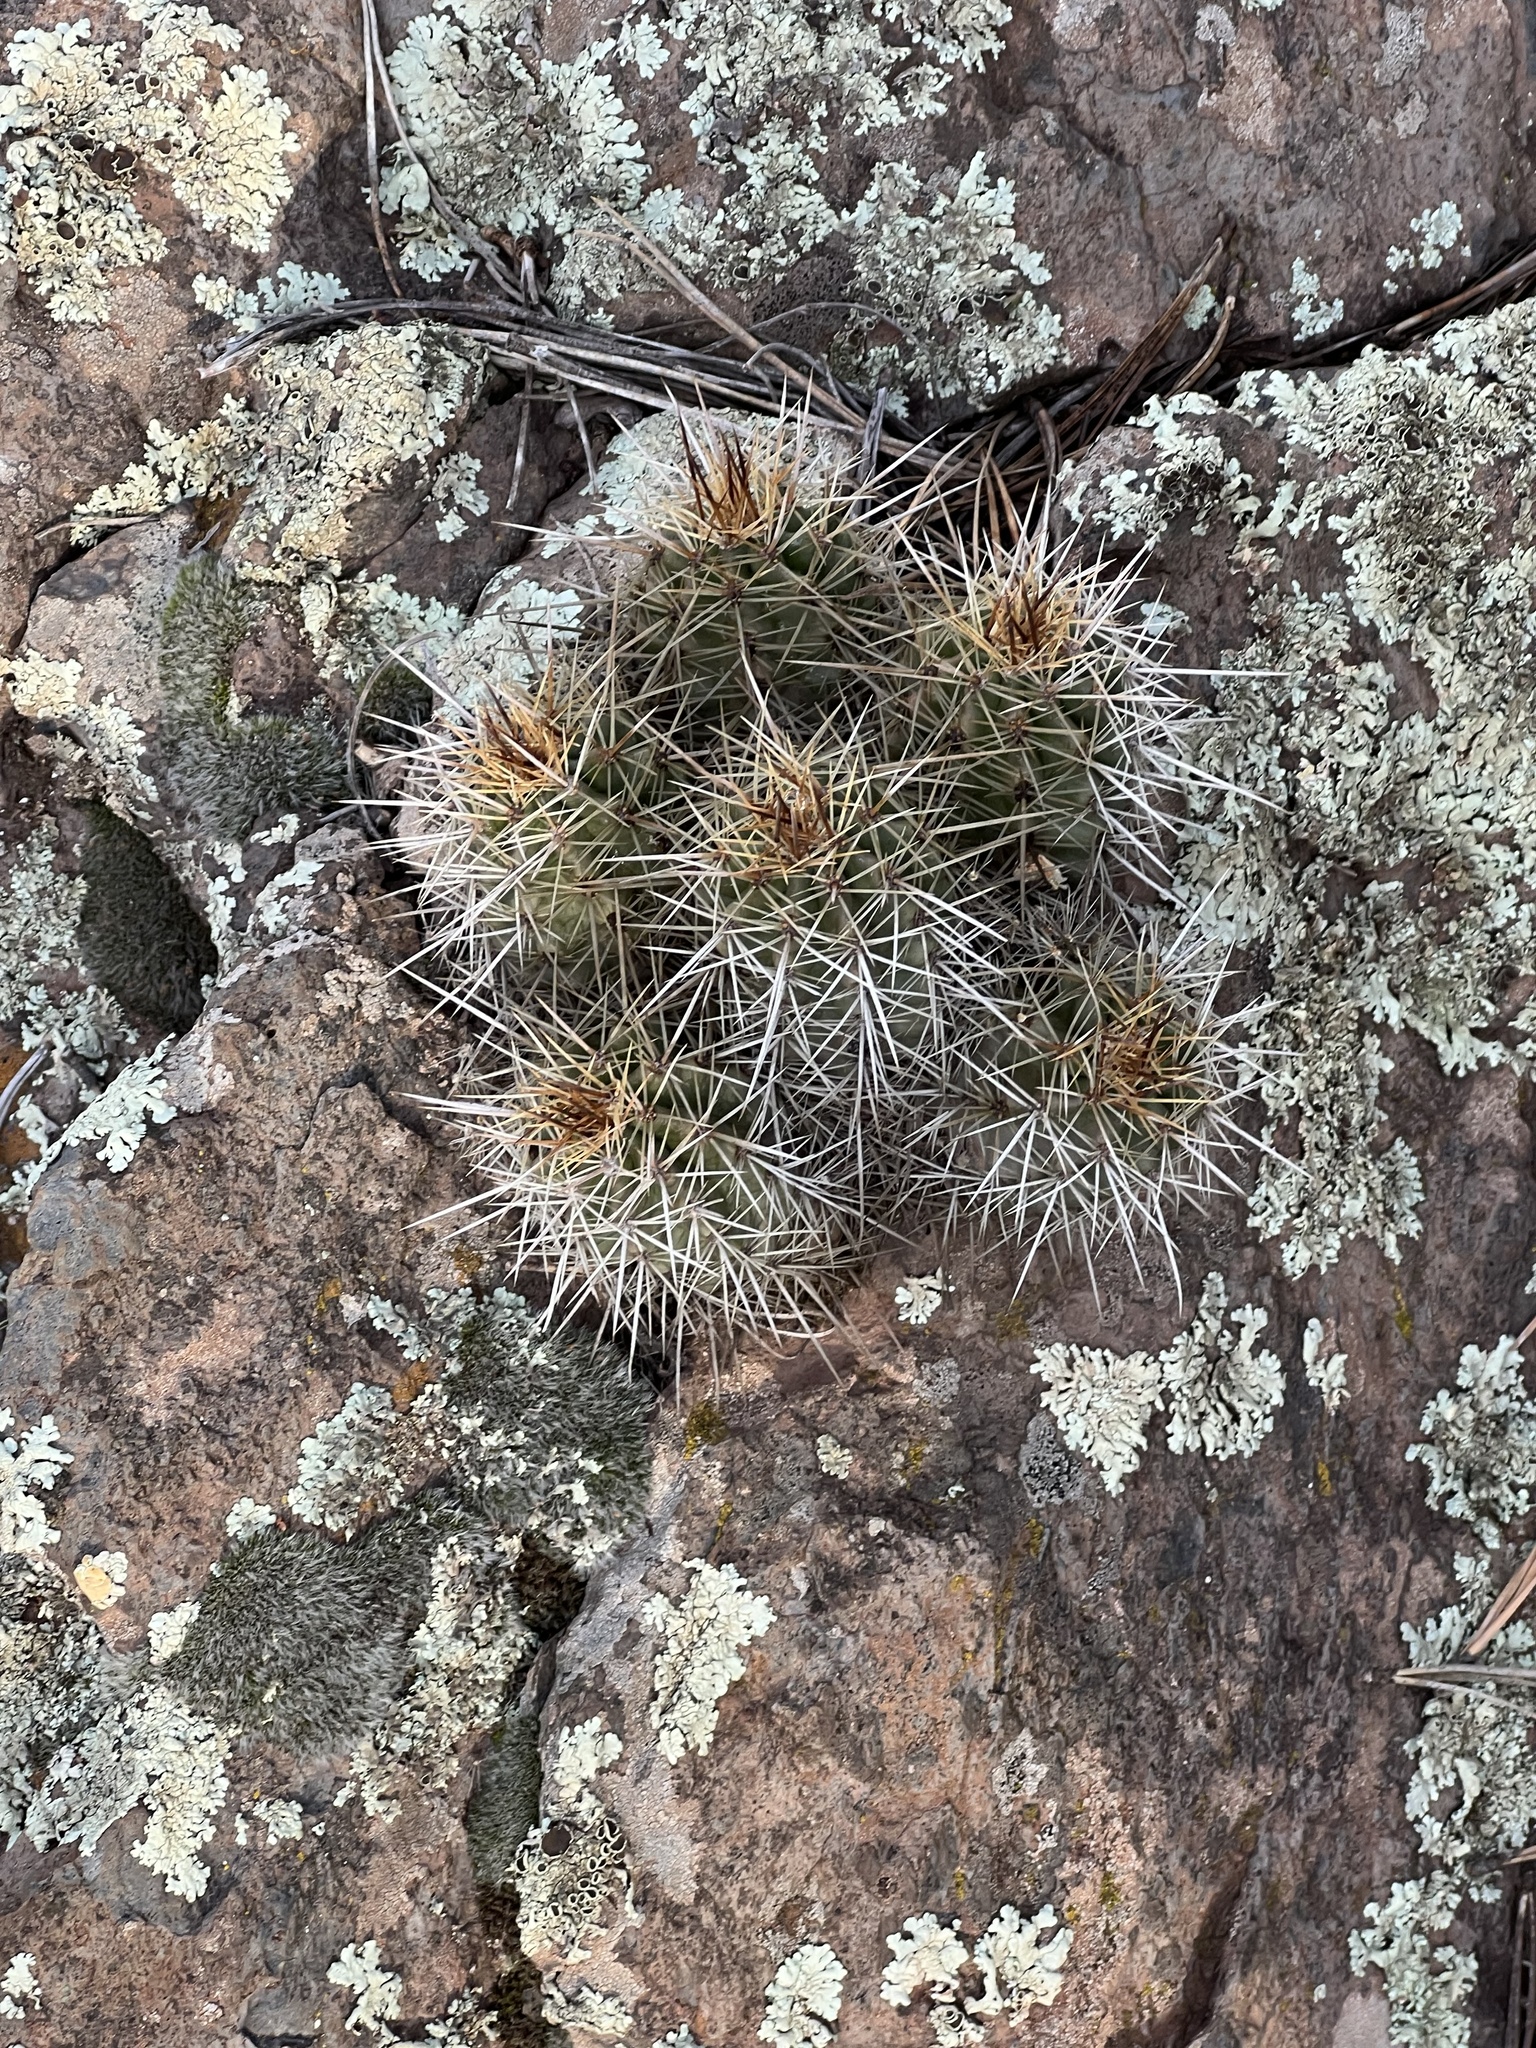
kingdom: Plantae
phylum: Tracheophyta
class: Magnoliopsida
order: Caryophyllales
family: Cactaceae
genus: Echinocereus
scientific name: Echinocereus bakeri
